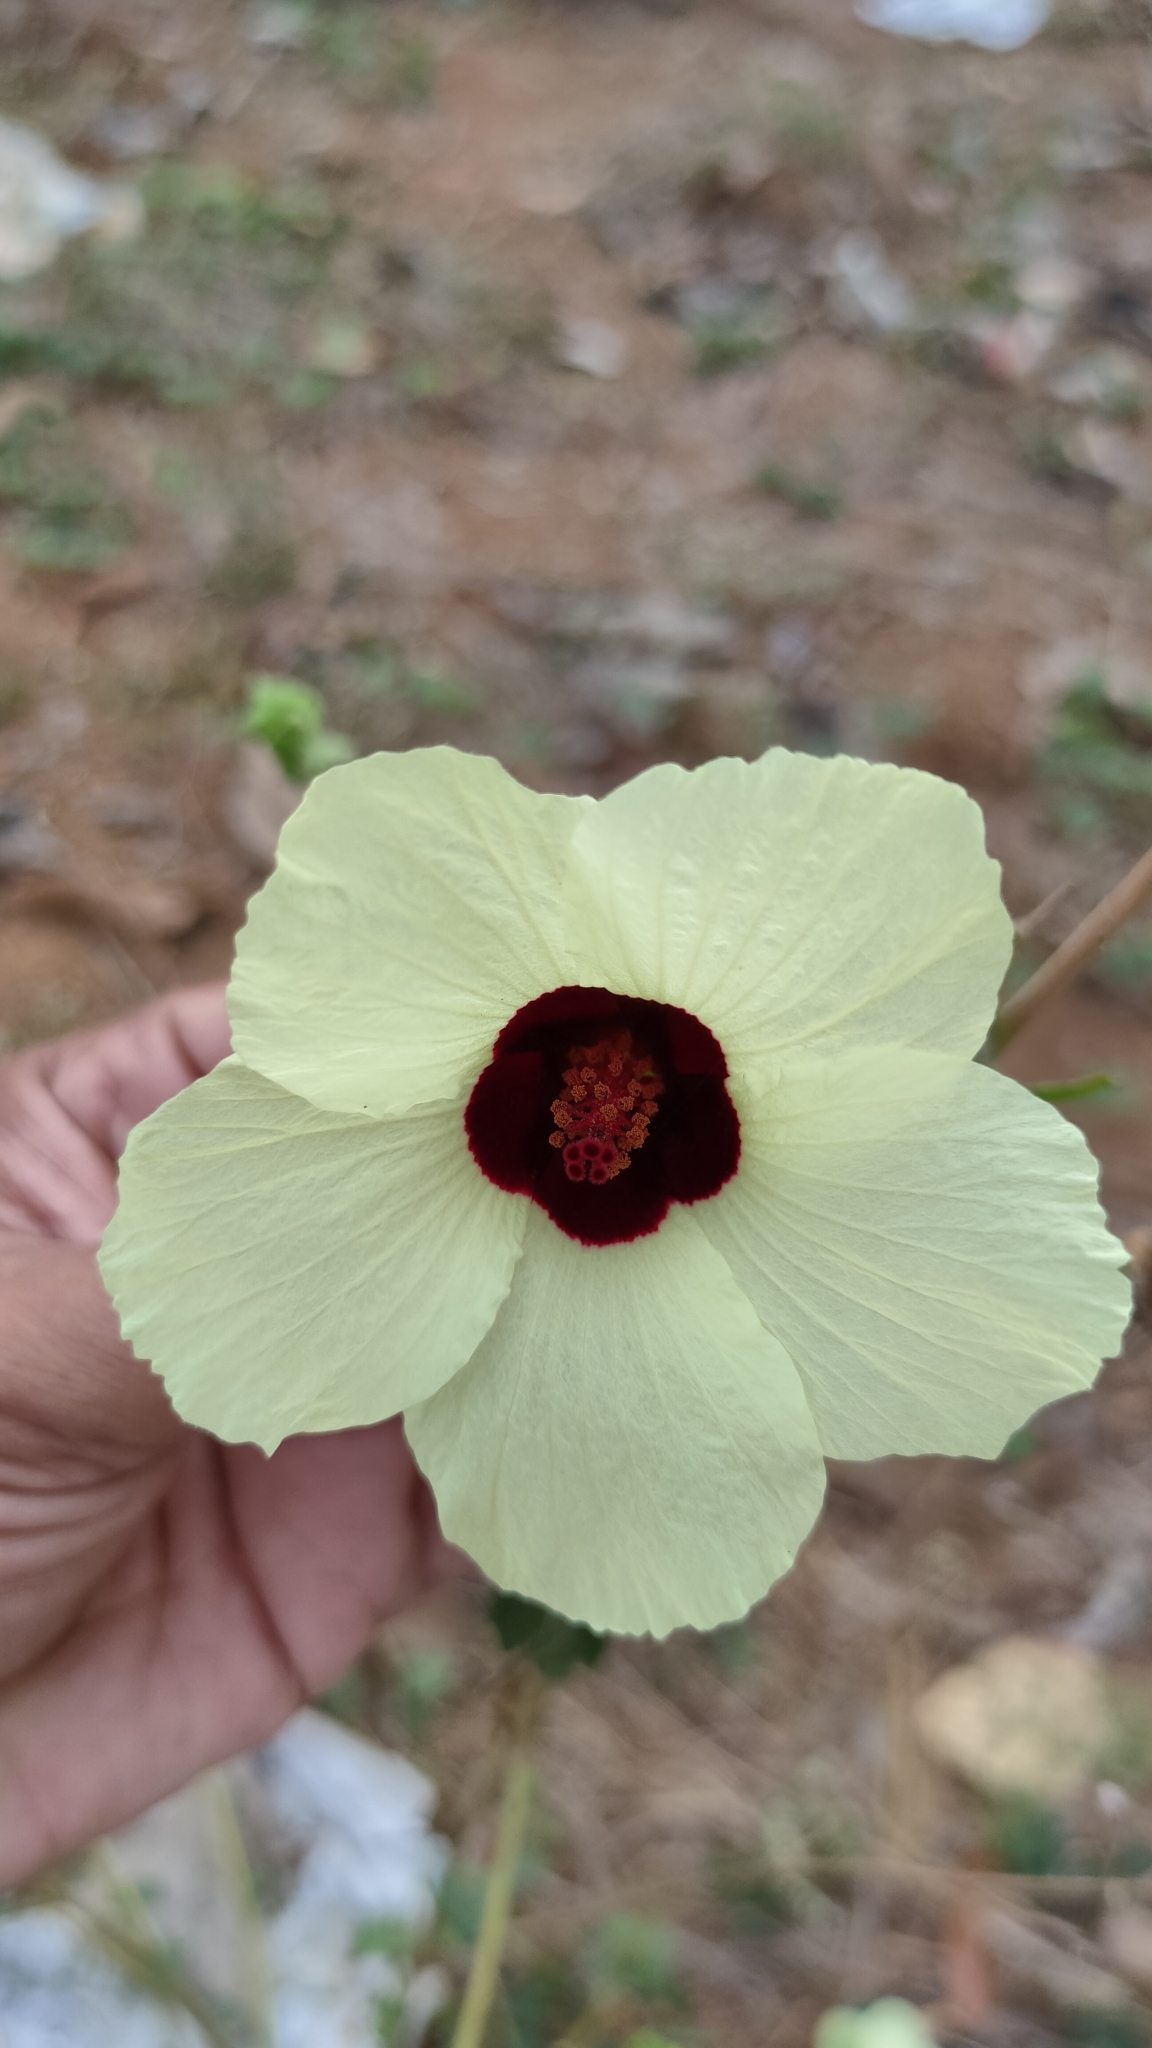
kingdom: Plantae
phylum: Tracheophyta
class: Magnoliopsida
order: Malvales
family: Malvaceae
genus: Hibiscus
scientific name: Hibiscus vitifolius
